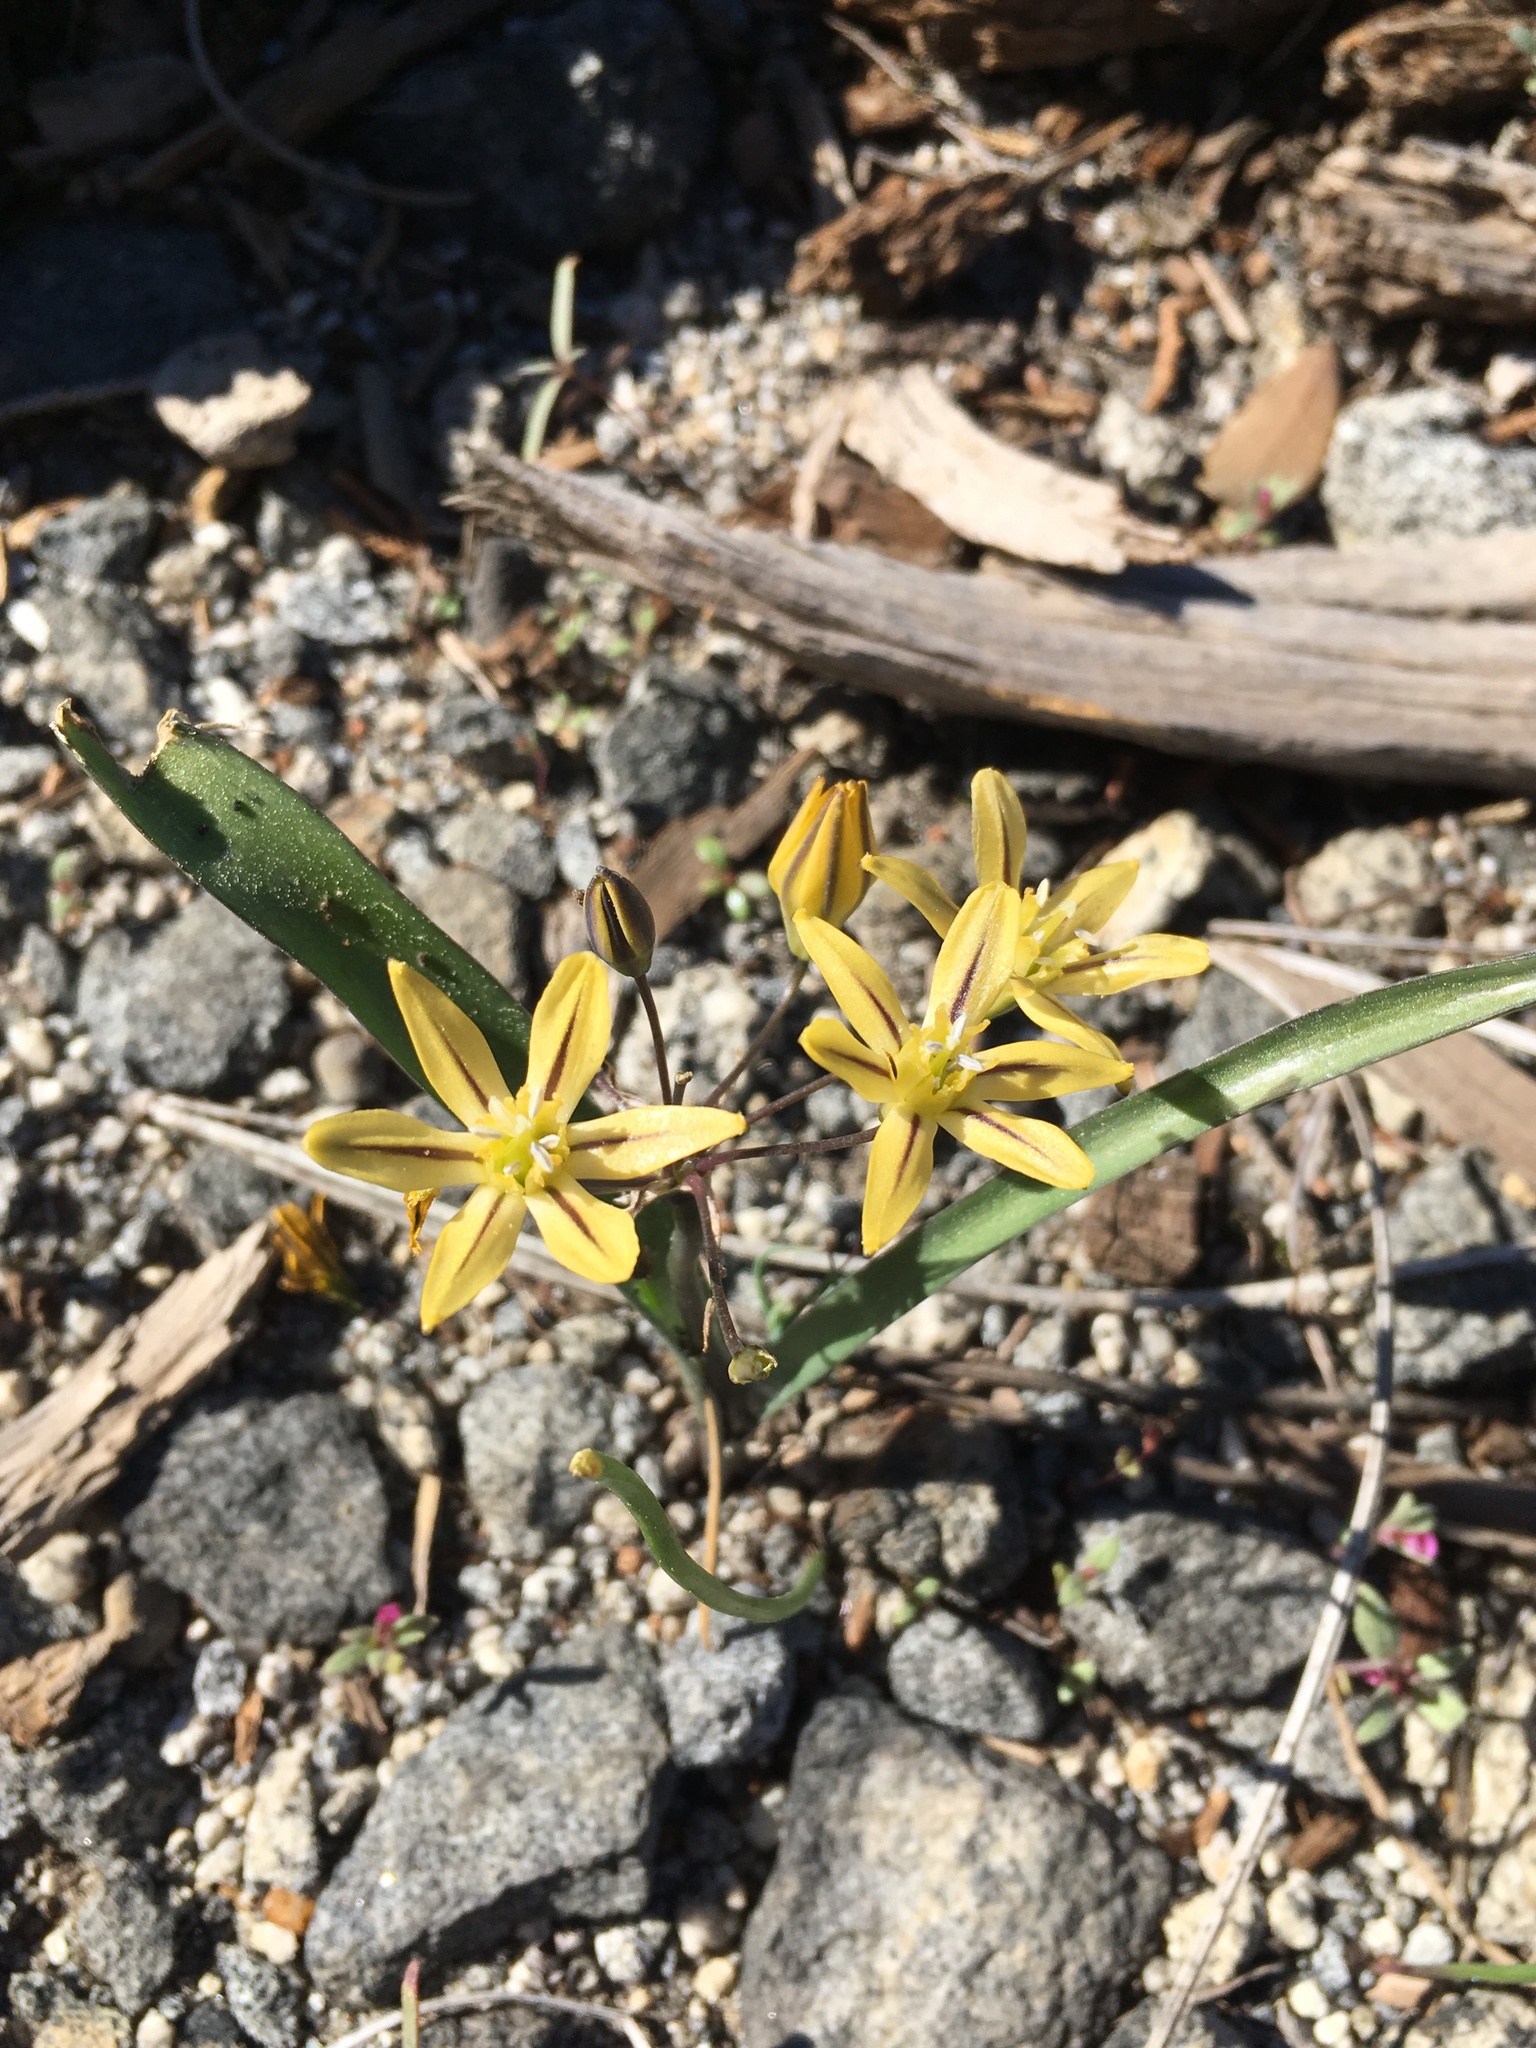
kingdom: Plantae
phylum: Tracheophyta
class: Liliopsida
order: Asparagales
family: Asparagaceae
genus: Triteleia
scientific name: Triteleia ixioides
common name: Yellow-brodiaea
